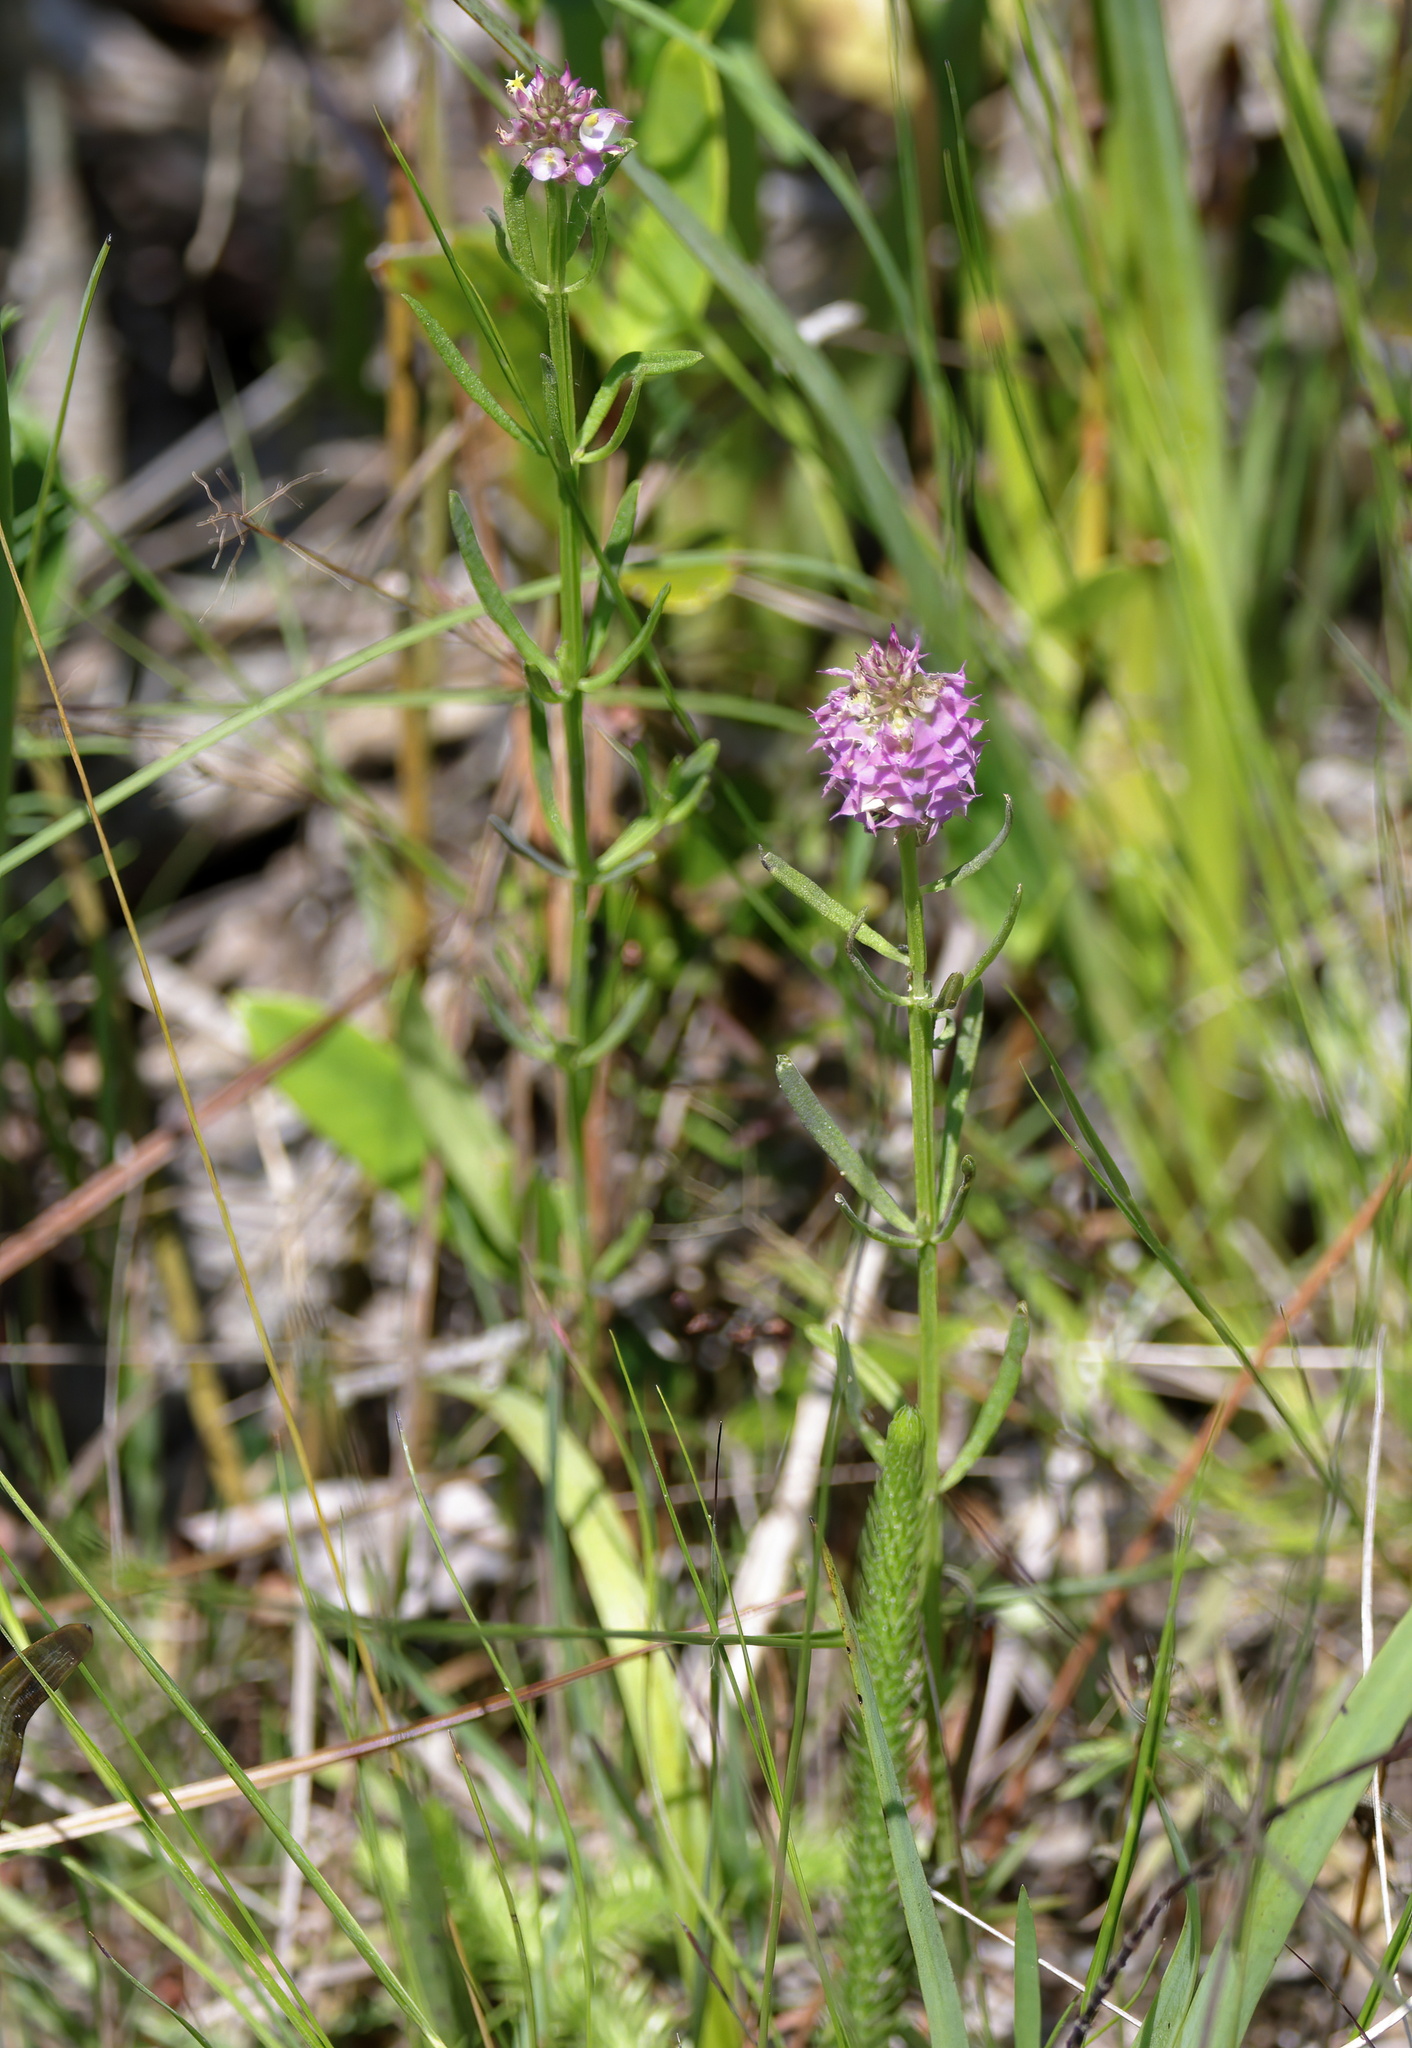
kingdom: Plantae
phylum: Tracheophyta
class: Magnoliopsida
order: Fabales
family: Polygalaceae
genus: Polygala
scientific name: Polygala cruciata
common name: Drumheads
